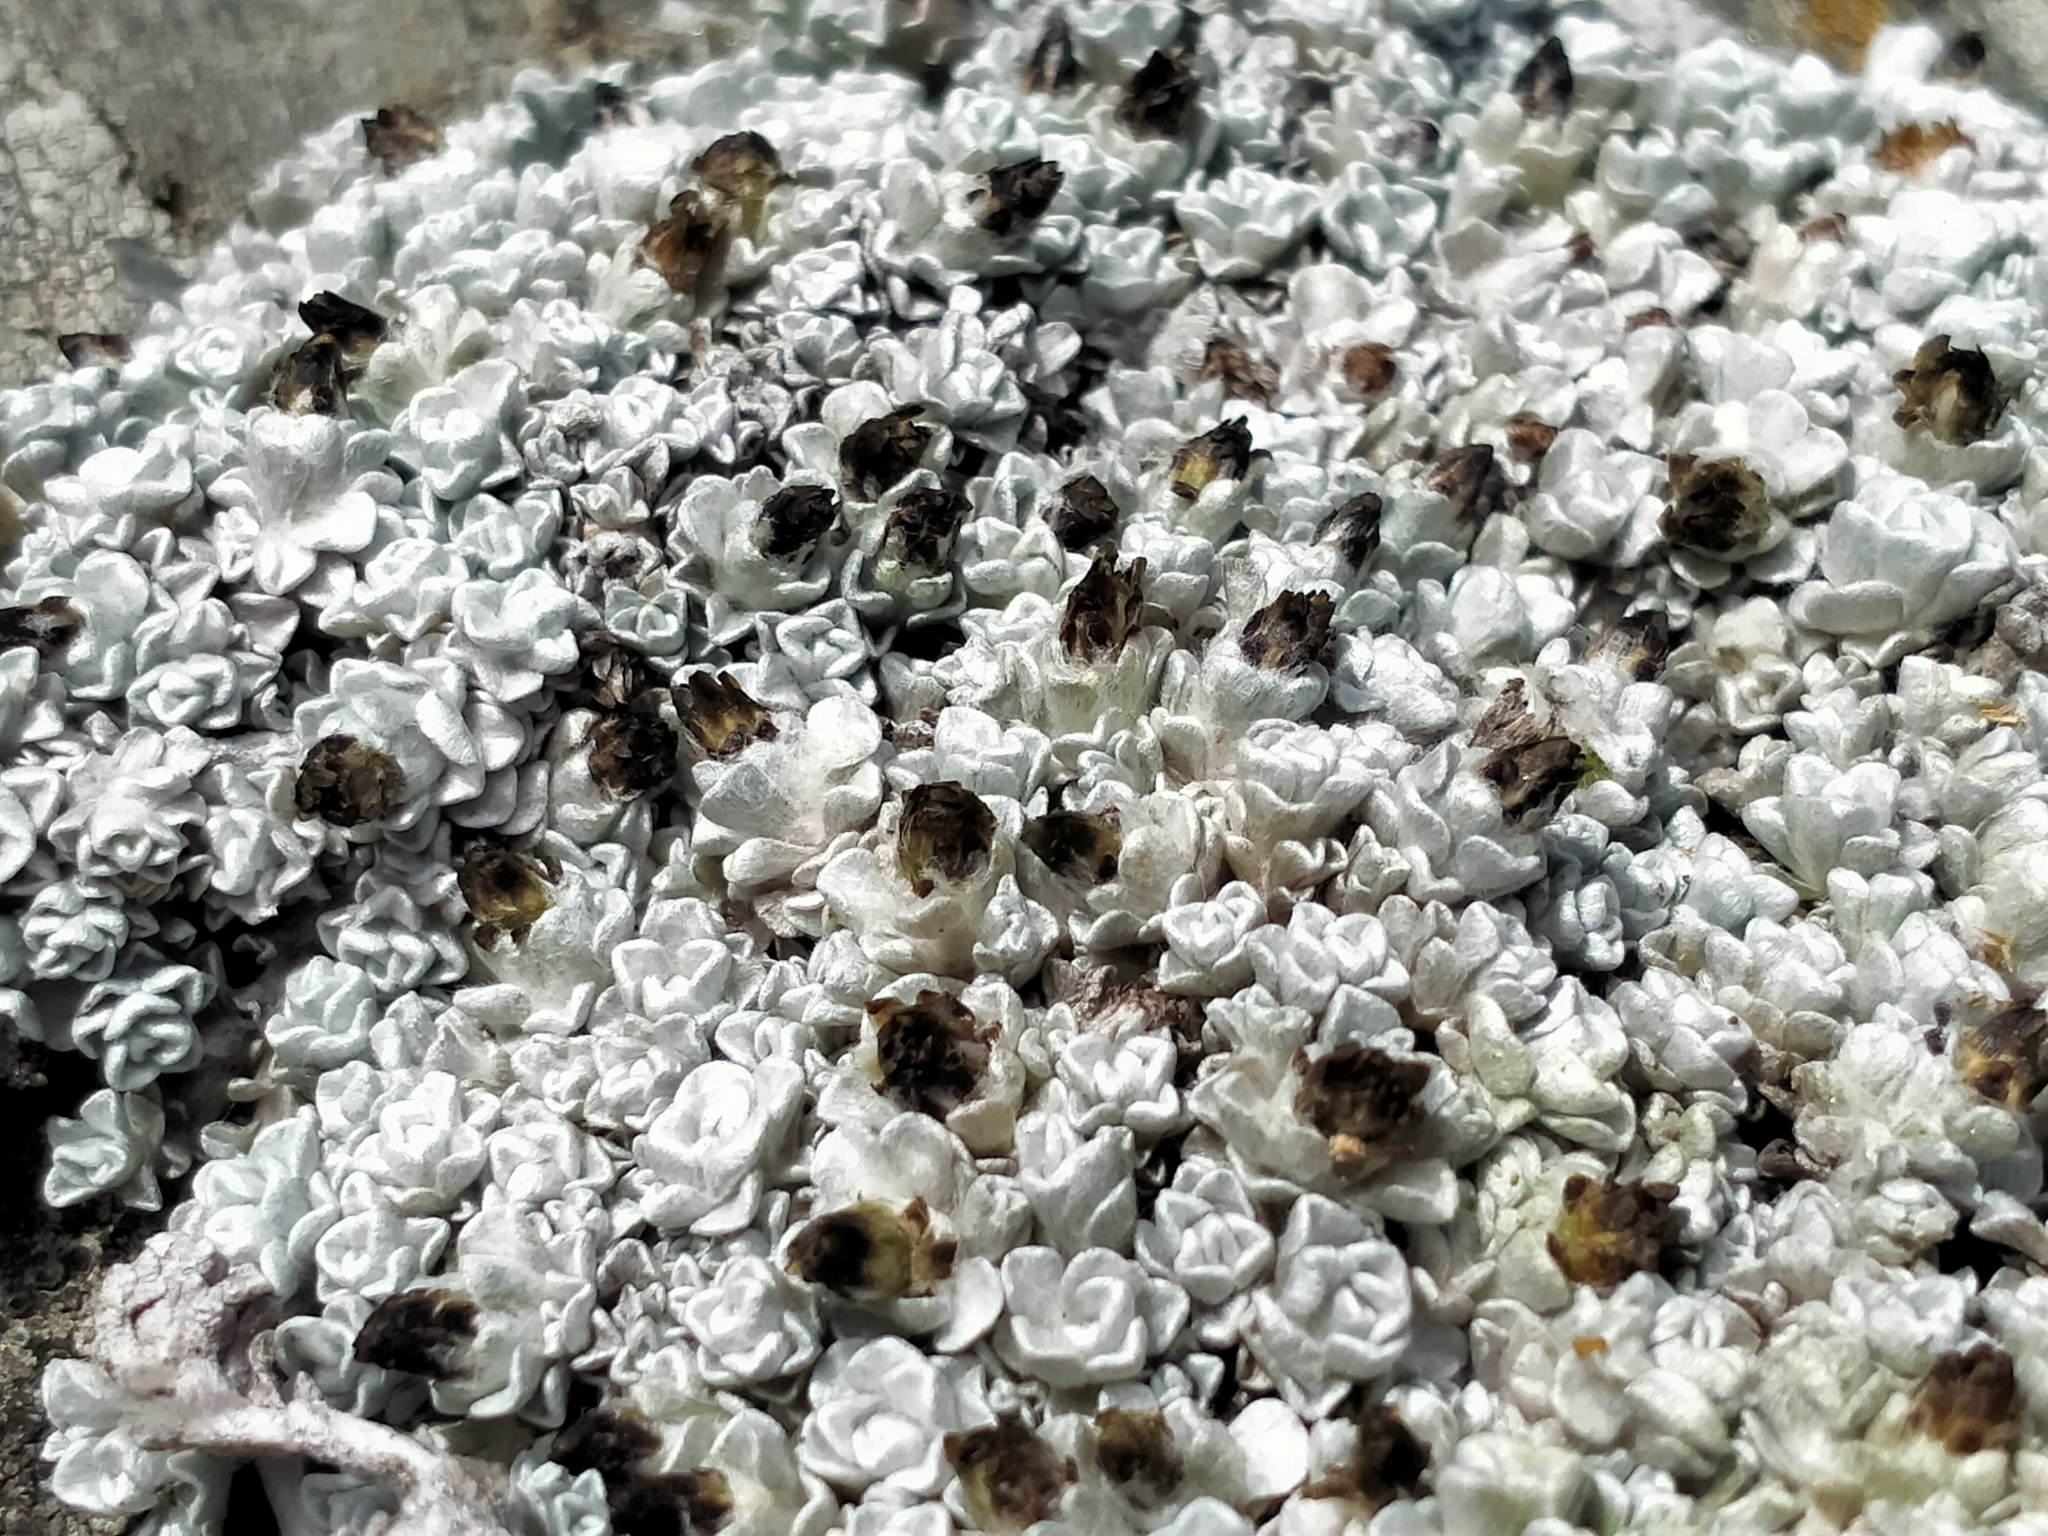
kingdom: Plantae
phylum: Tracheophyta
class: Magnoliopsida
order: Asterales
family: Asteraceae
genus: Raoulia
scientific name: Raoulia apicinigra
